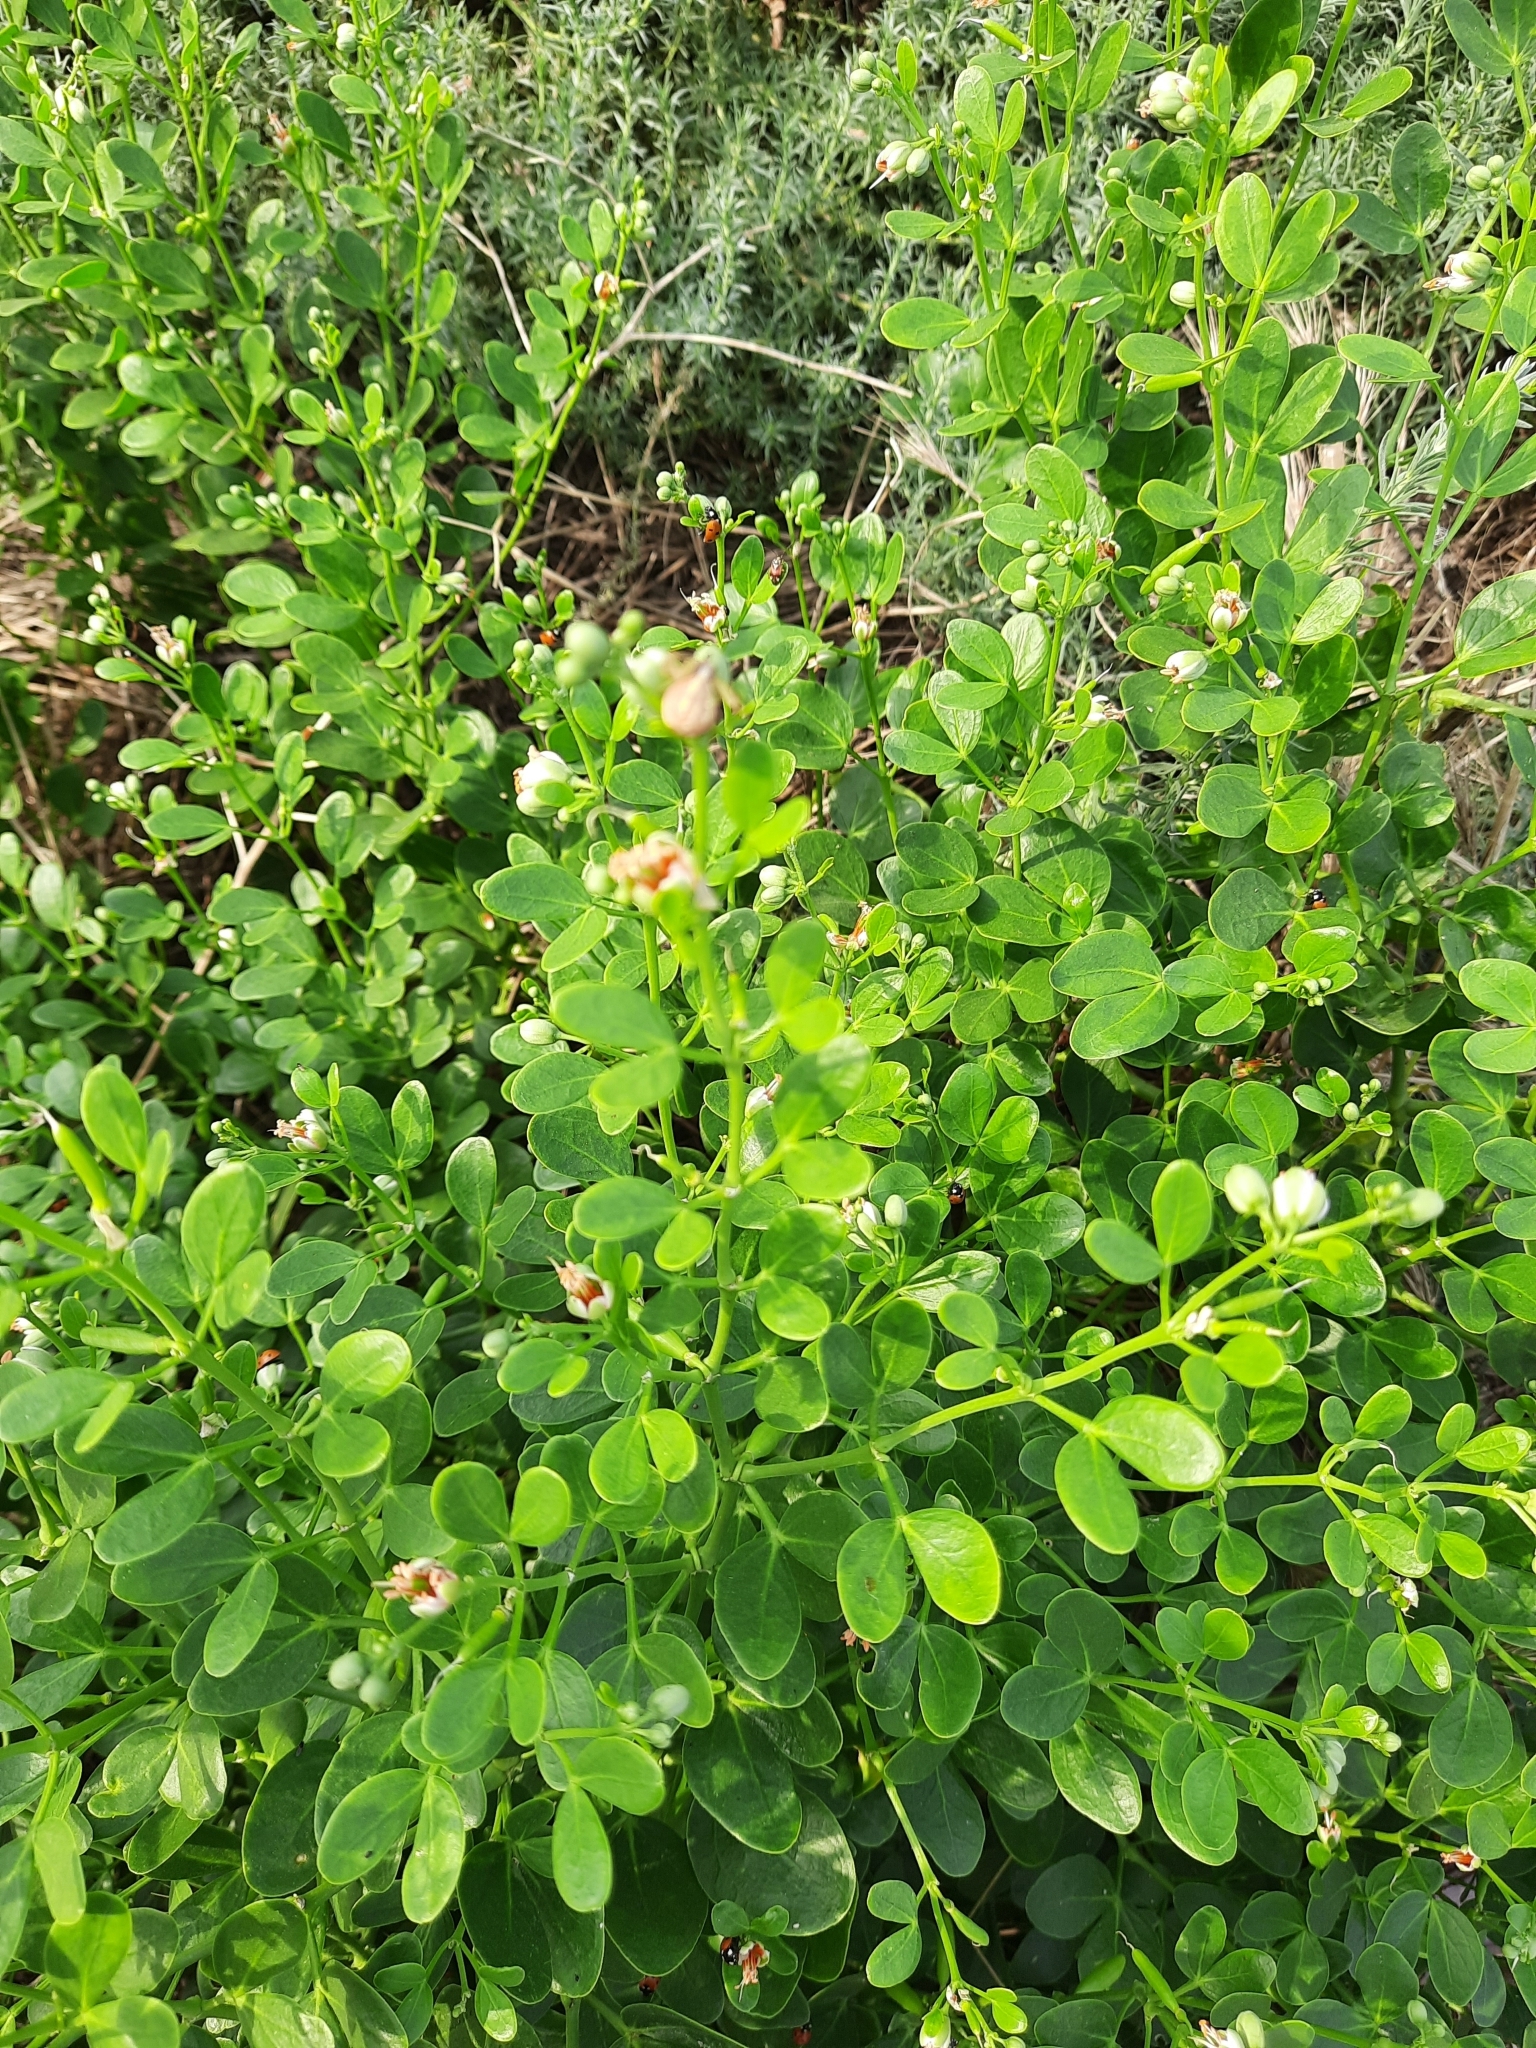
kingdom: Plantae
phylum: Tracheophyta
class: Magnoliopsida
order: Zygophyllales
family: Zygophyllaceae
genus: Zygophyllum
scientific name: Zygophyllum fabago
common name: Syrian beancaper
